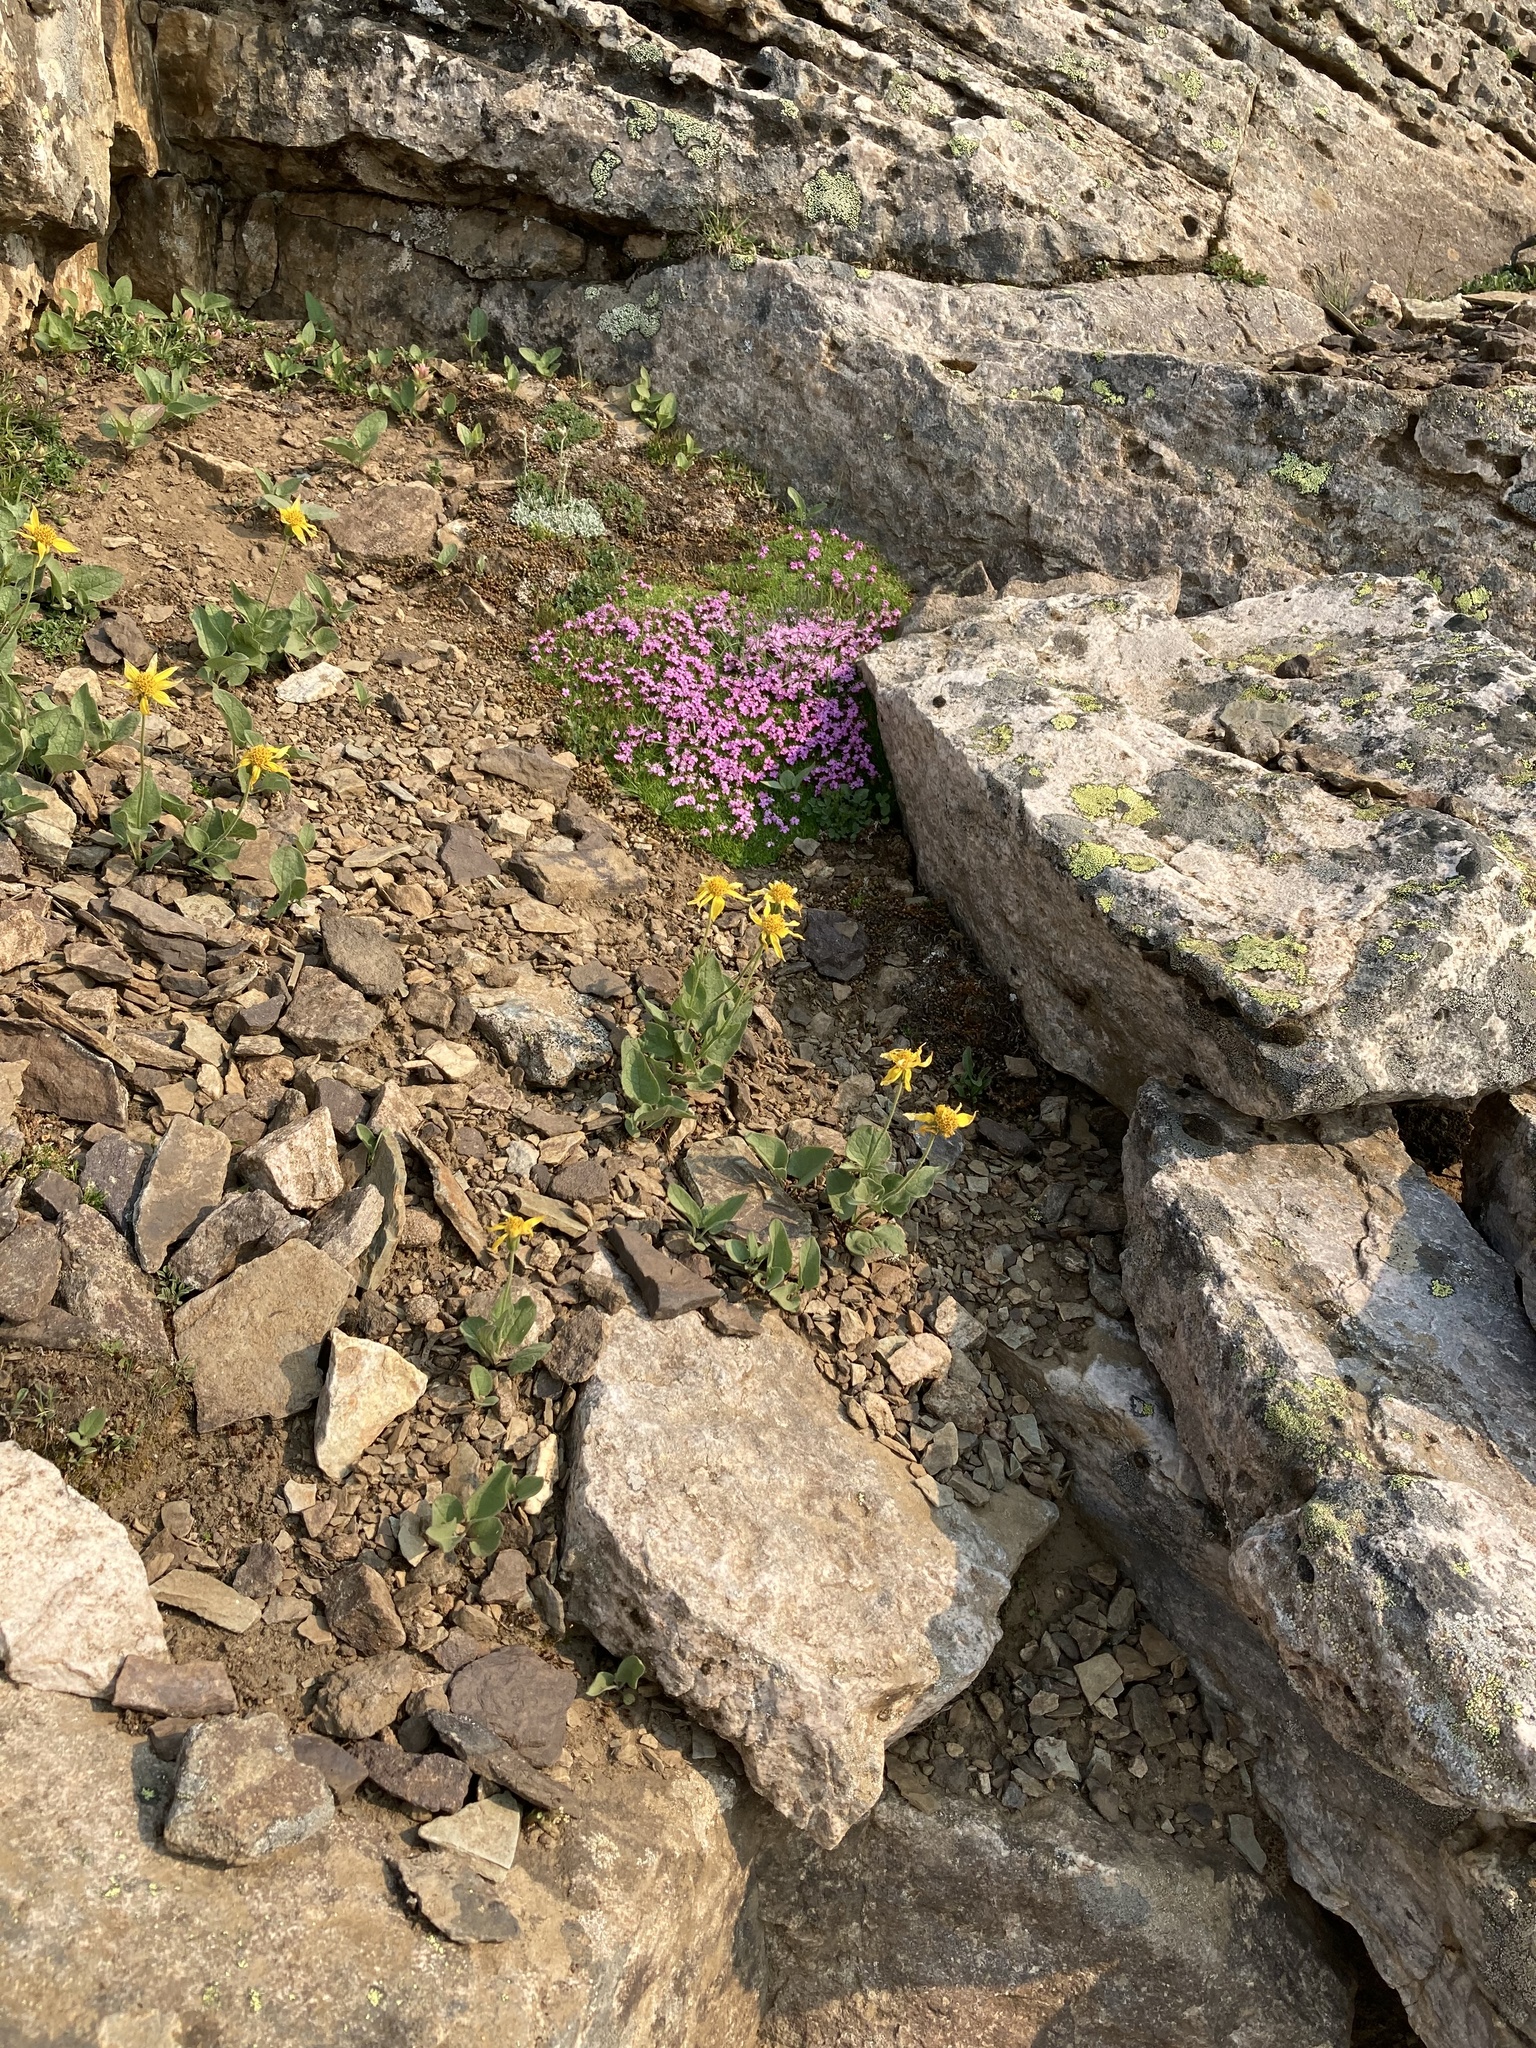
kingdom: Plantae
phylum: Tracheophyta
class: Magnoliopsida
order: Caryophyllales
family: Caryophyllaceae
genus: Silene
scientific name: Silene acaulis
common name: Moss campion
